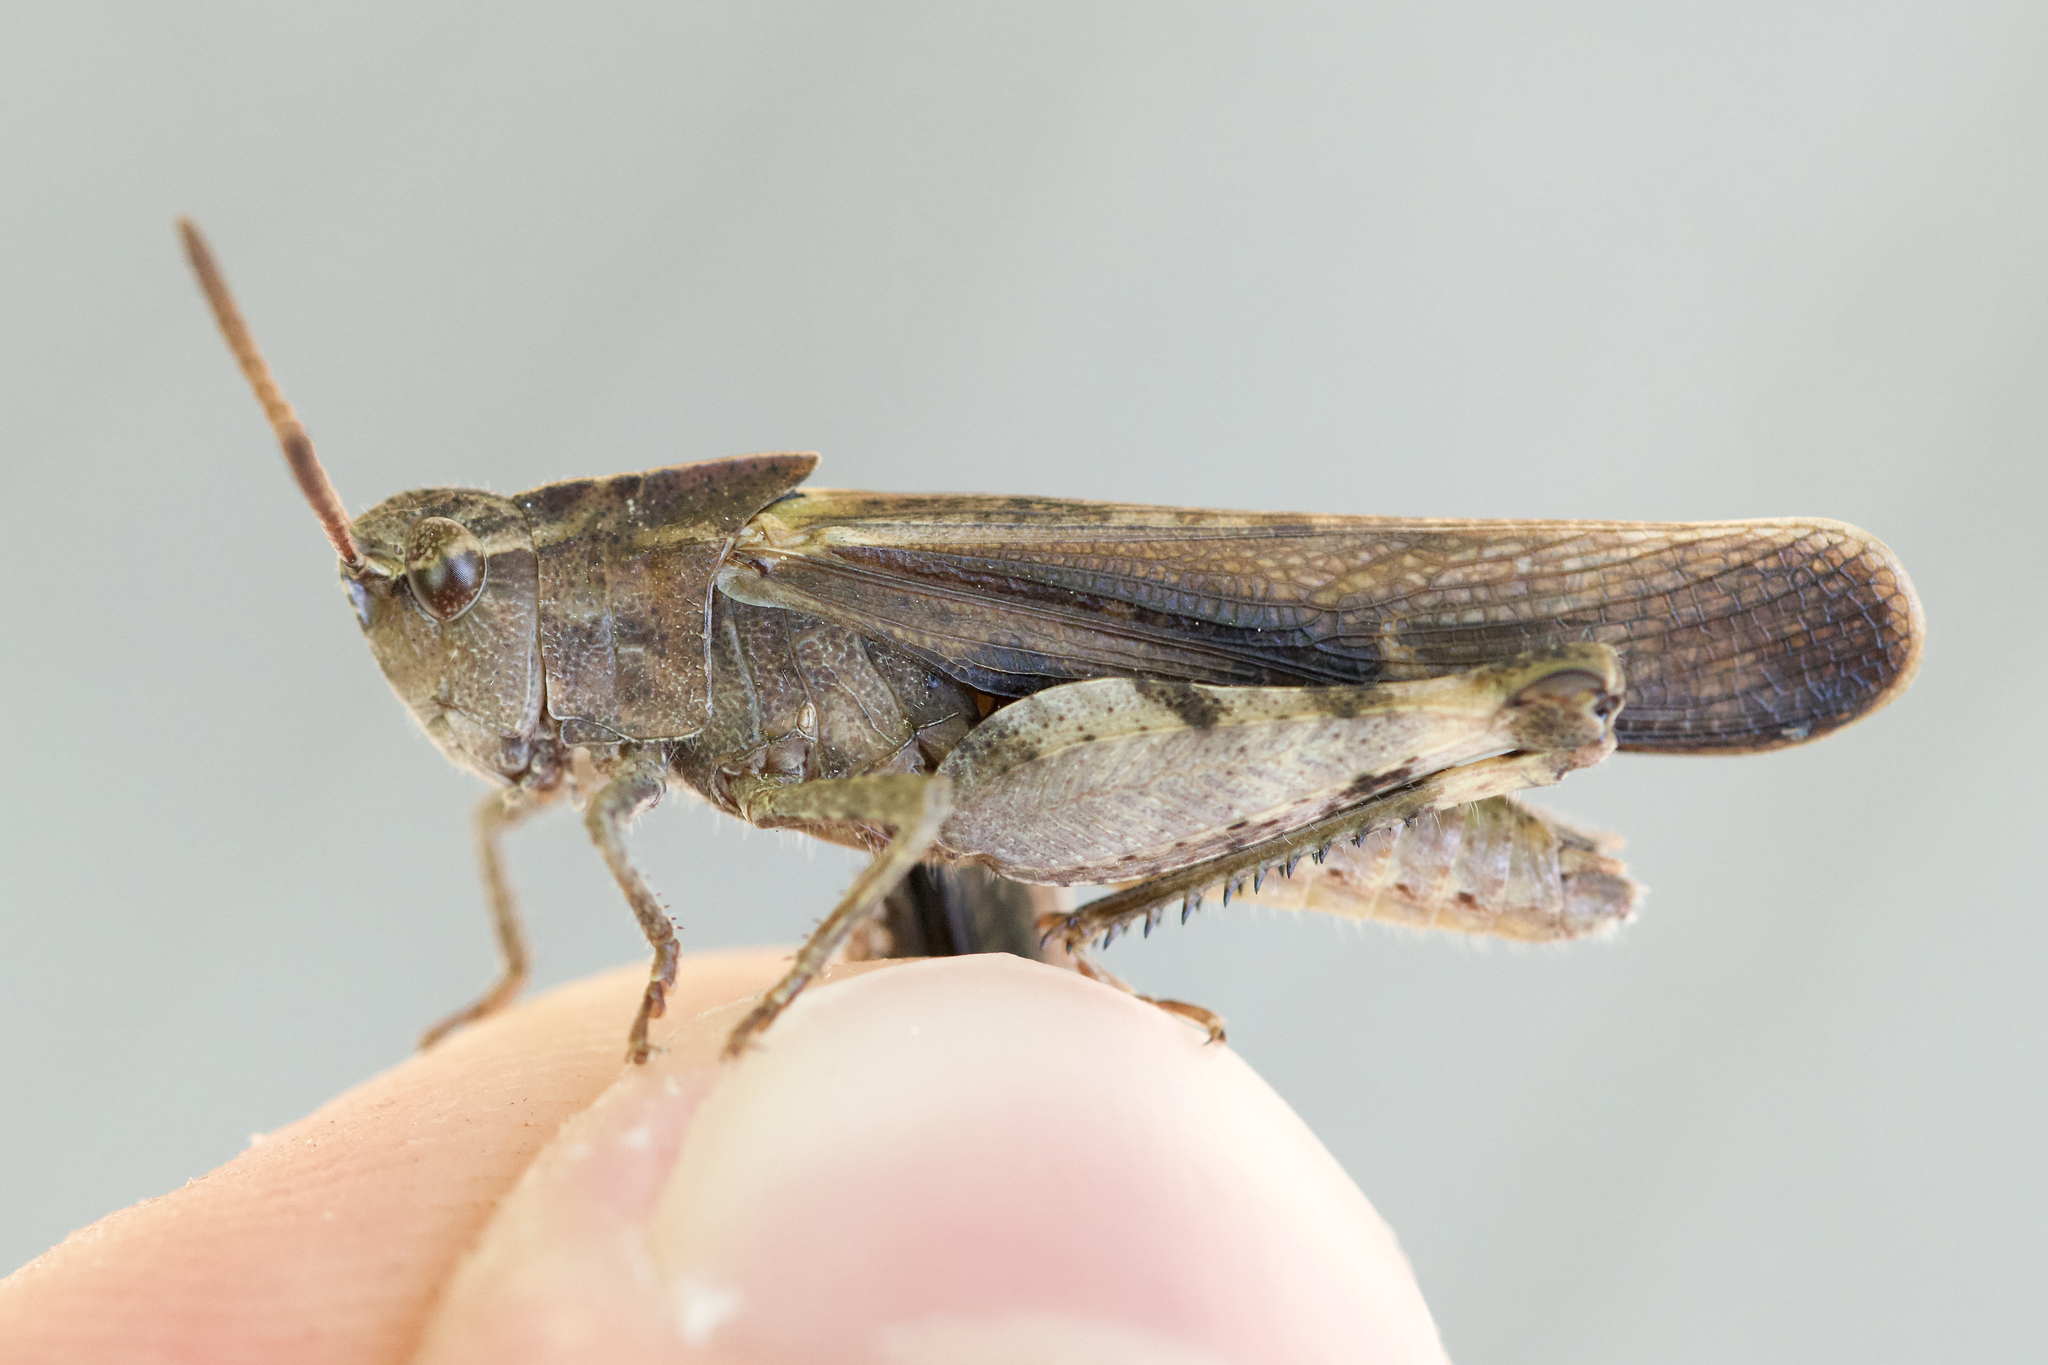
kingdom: Animalia
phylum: Arthropoda
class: Insecta
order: Orthoptera
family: Acrididae
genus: Chortophaga
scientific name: Chortophaga viridifasciata
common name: Green-striped grasshopper
